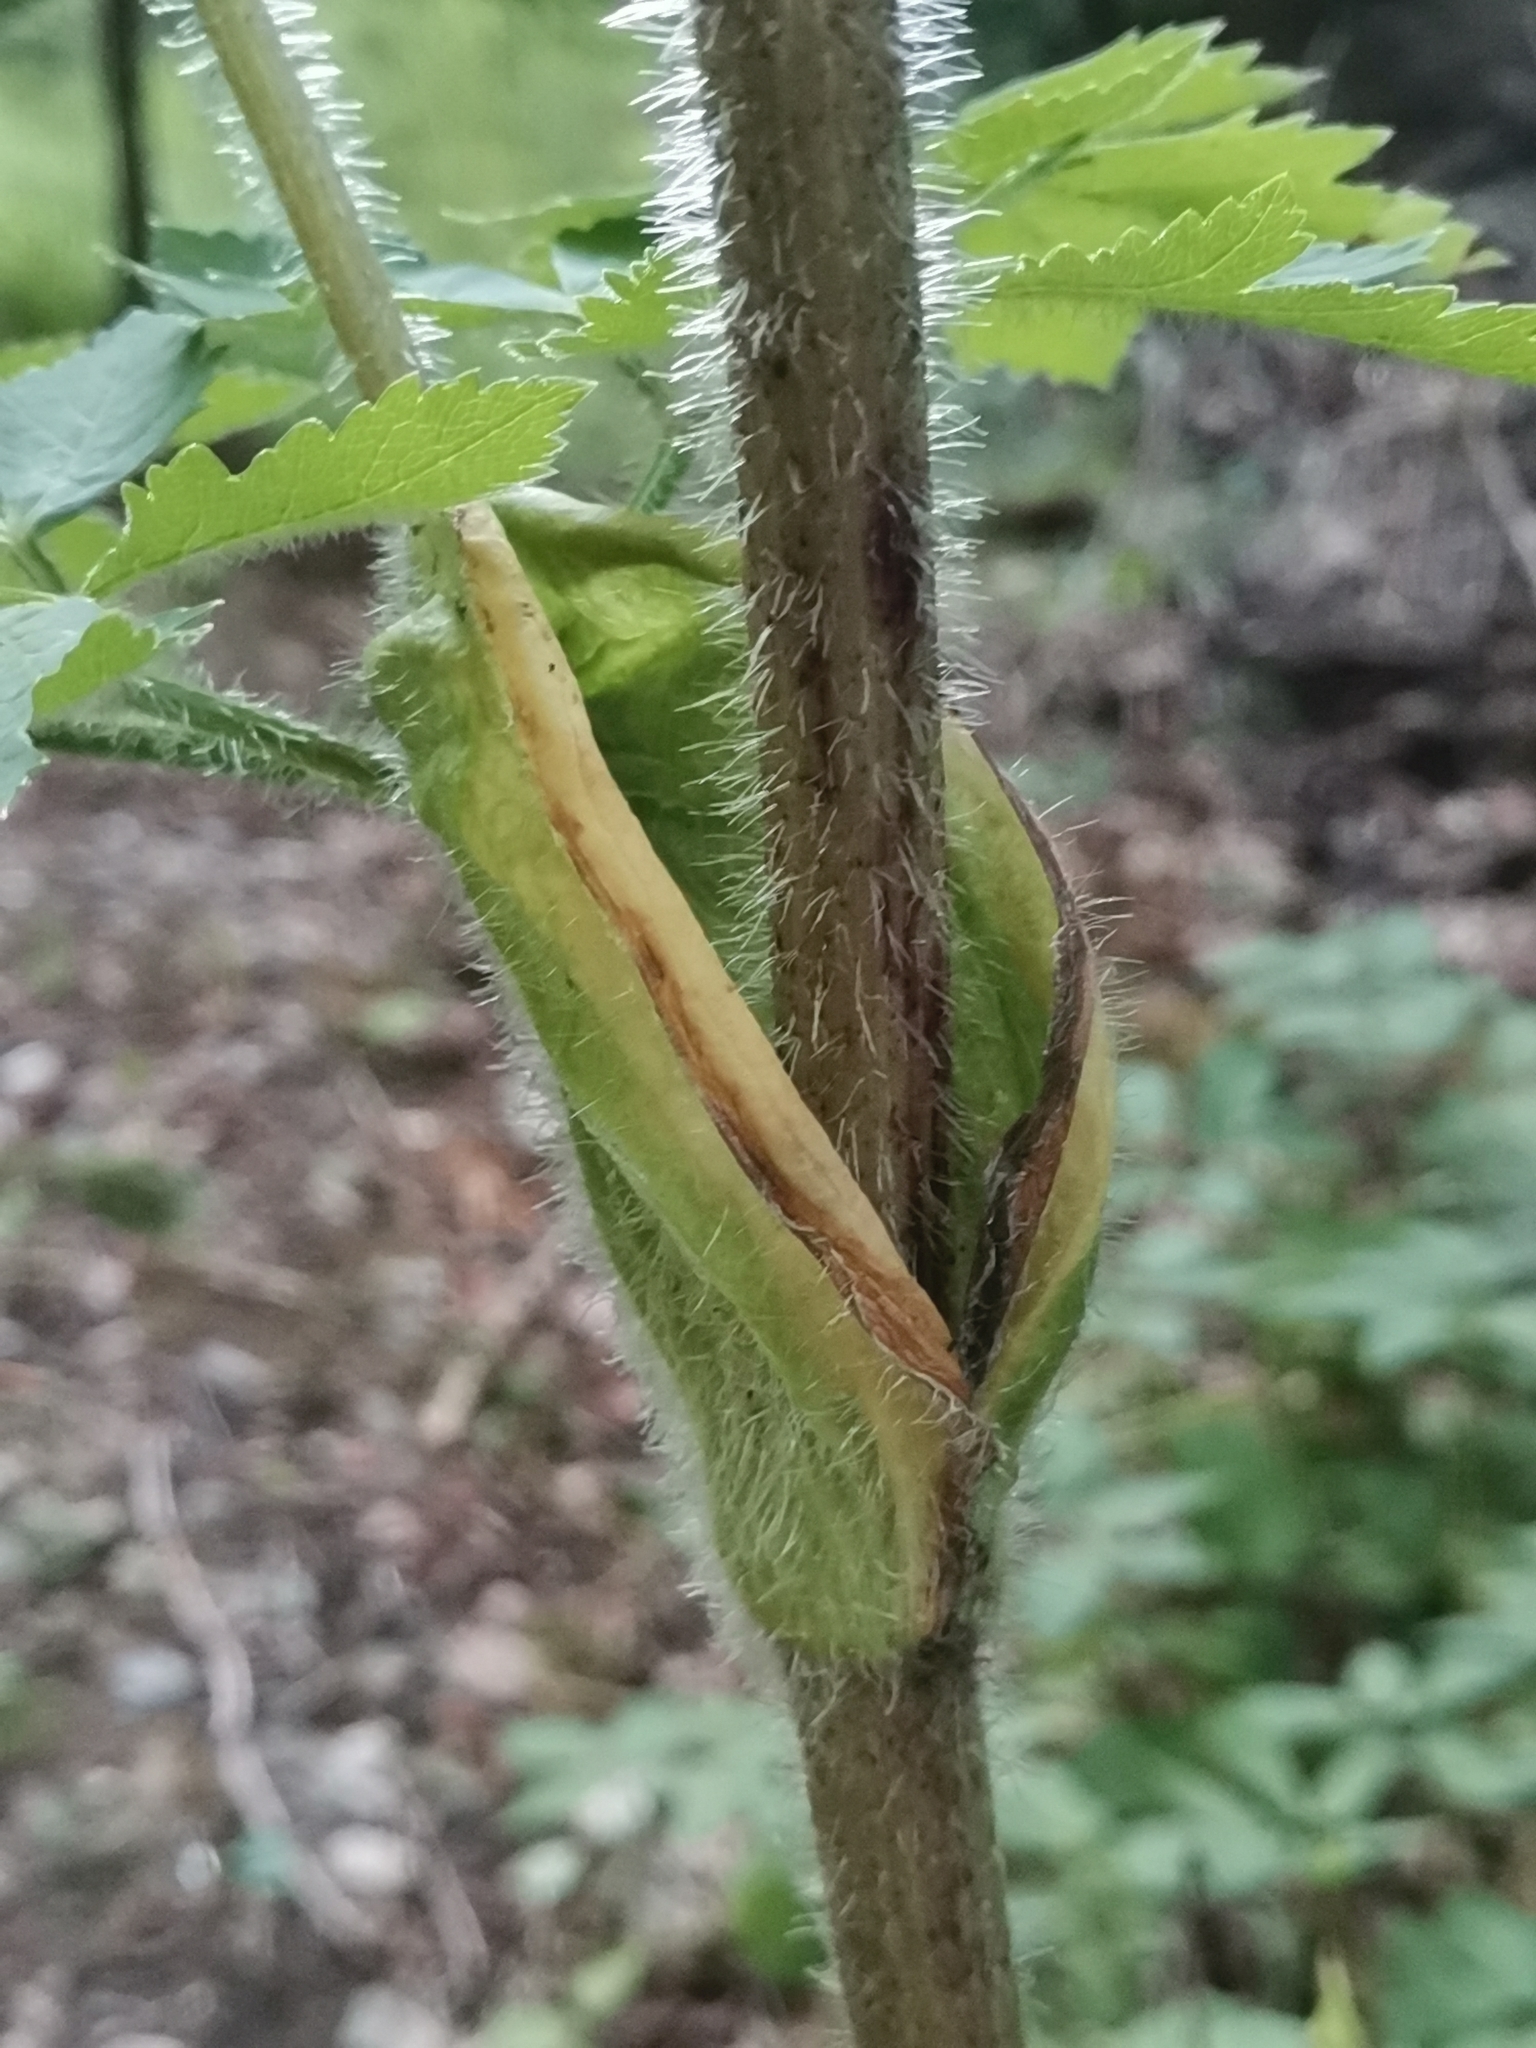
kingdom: Plantae
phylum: Tracheophyta
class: Magnoliopsida
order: Apiales
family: Apiaceae
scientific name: Apiaceae
